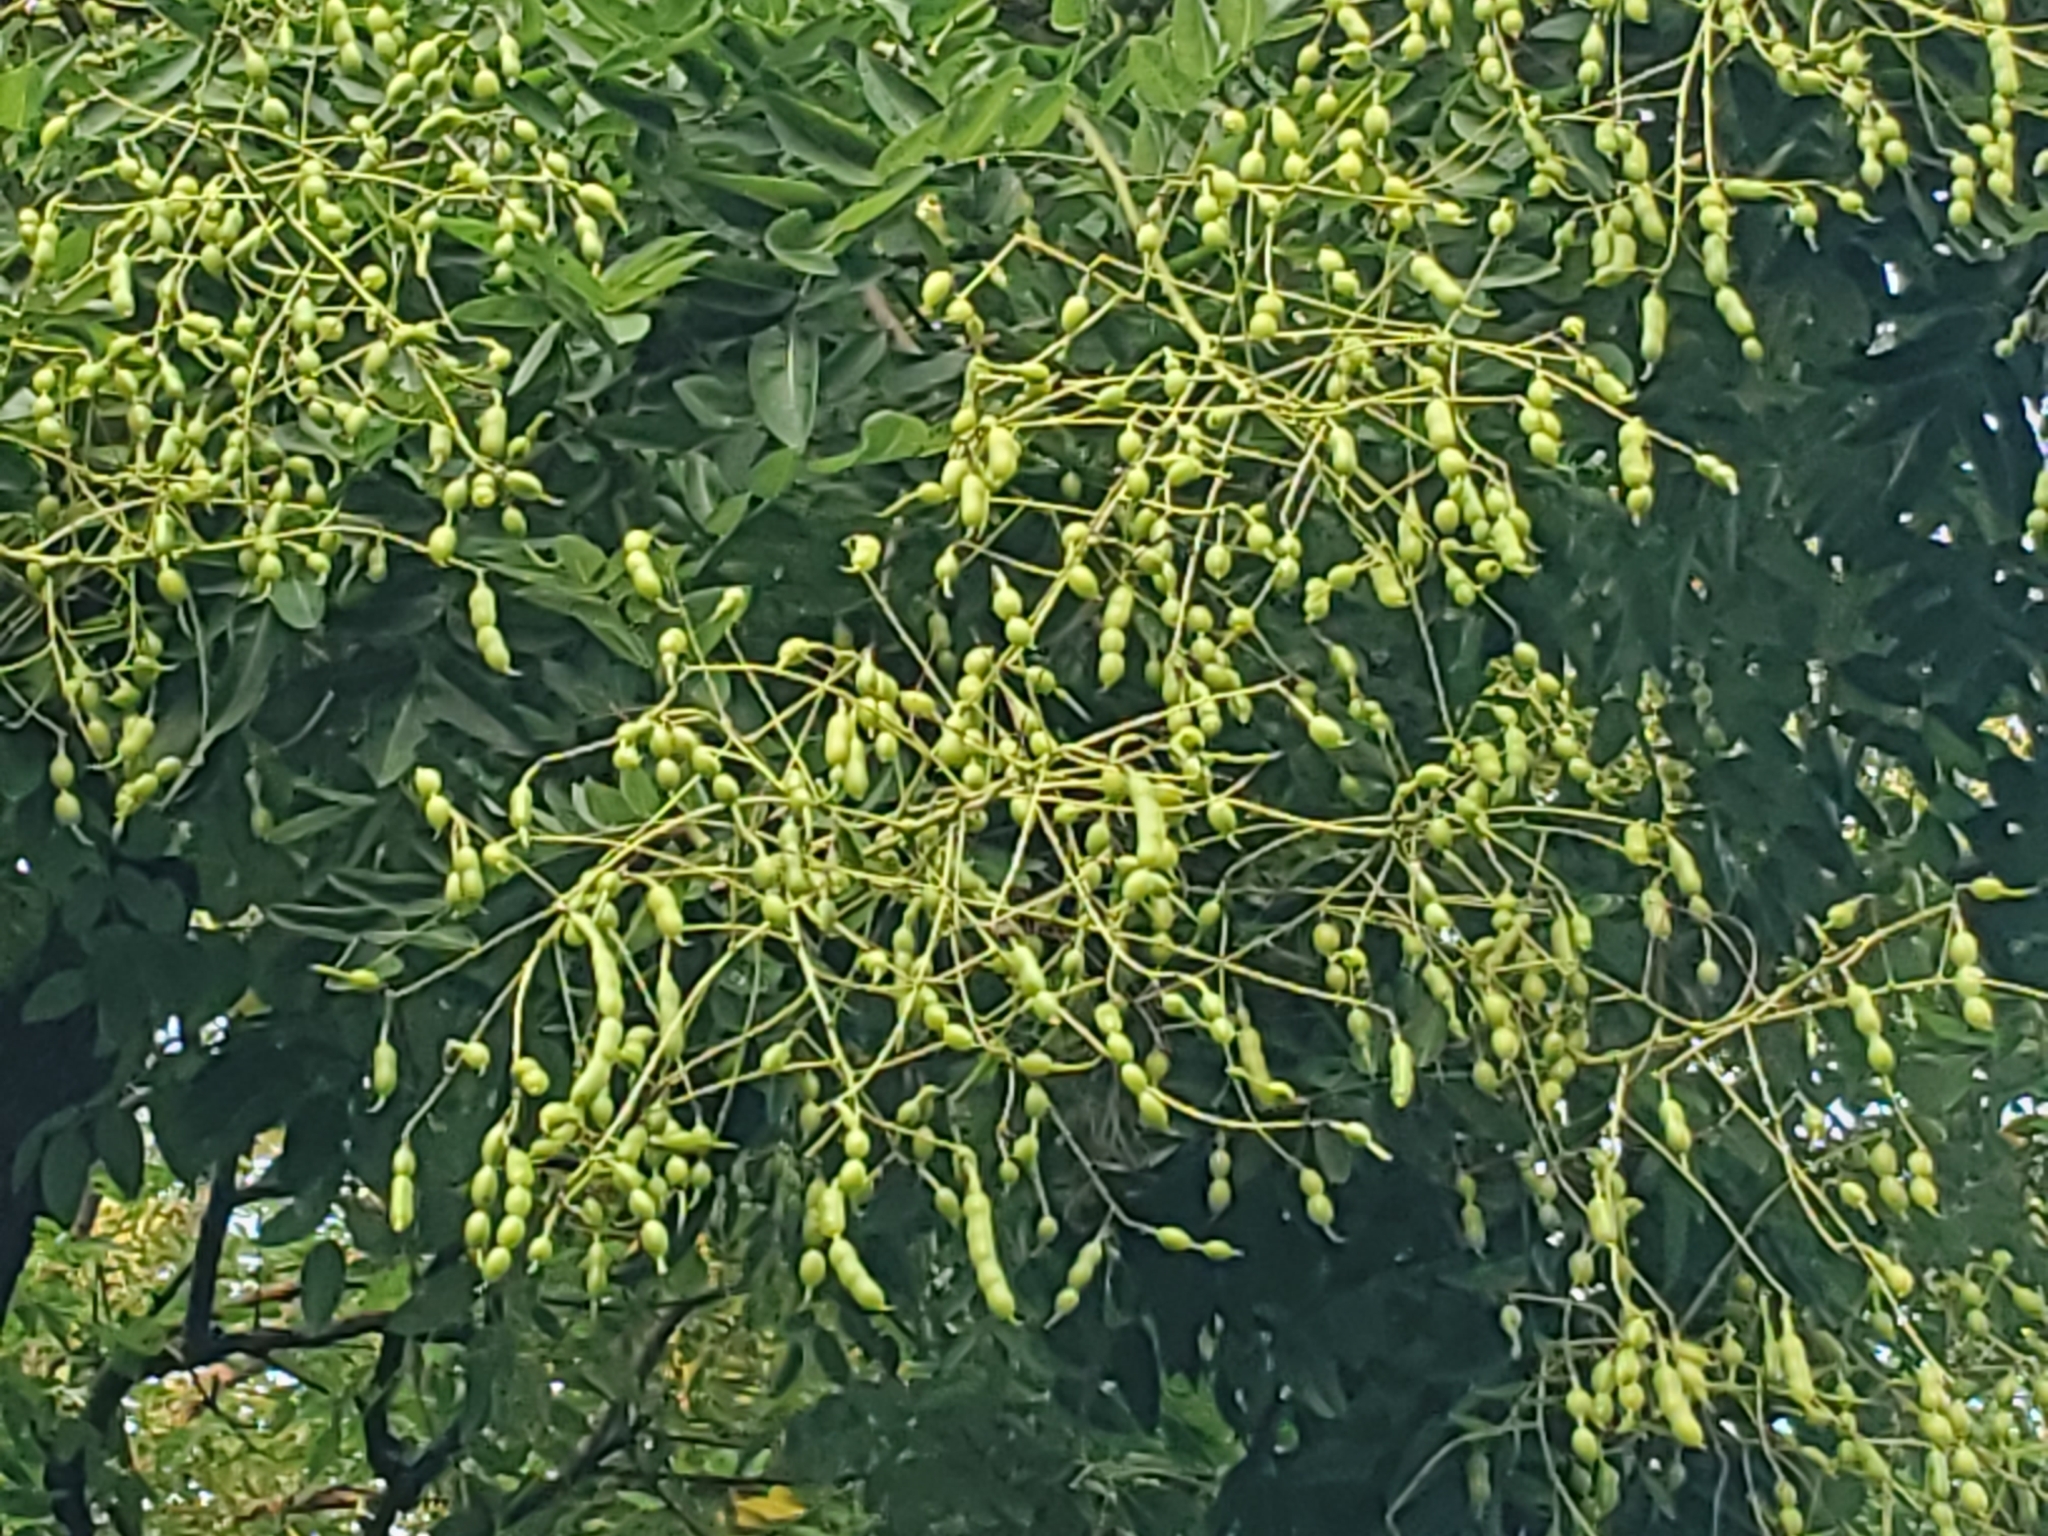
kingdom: Plantae
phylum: Tracheophyta
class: Magnoliopsida
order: Fabales
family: Fabaceae
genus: Styphnolobium
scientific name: Styphnolobium japonicum
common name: Chinese scholartree
